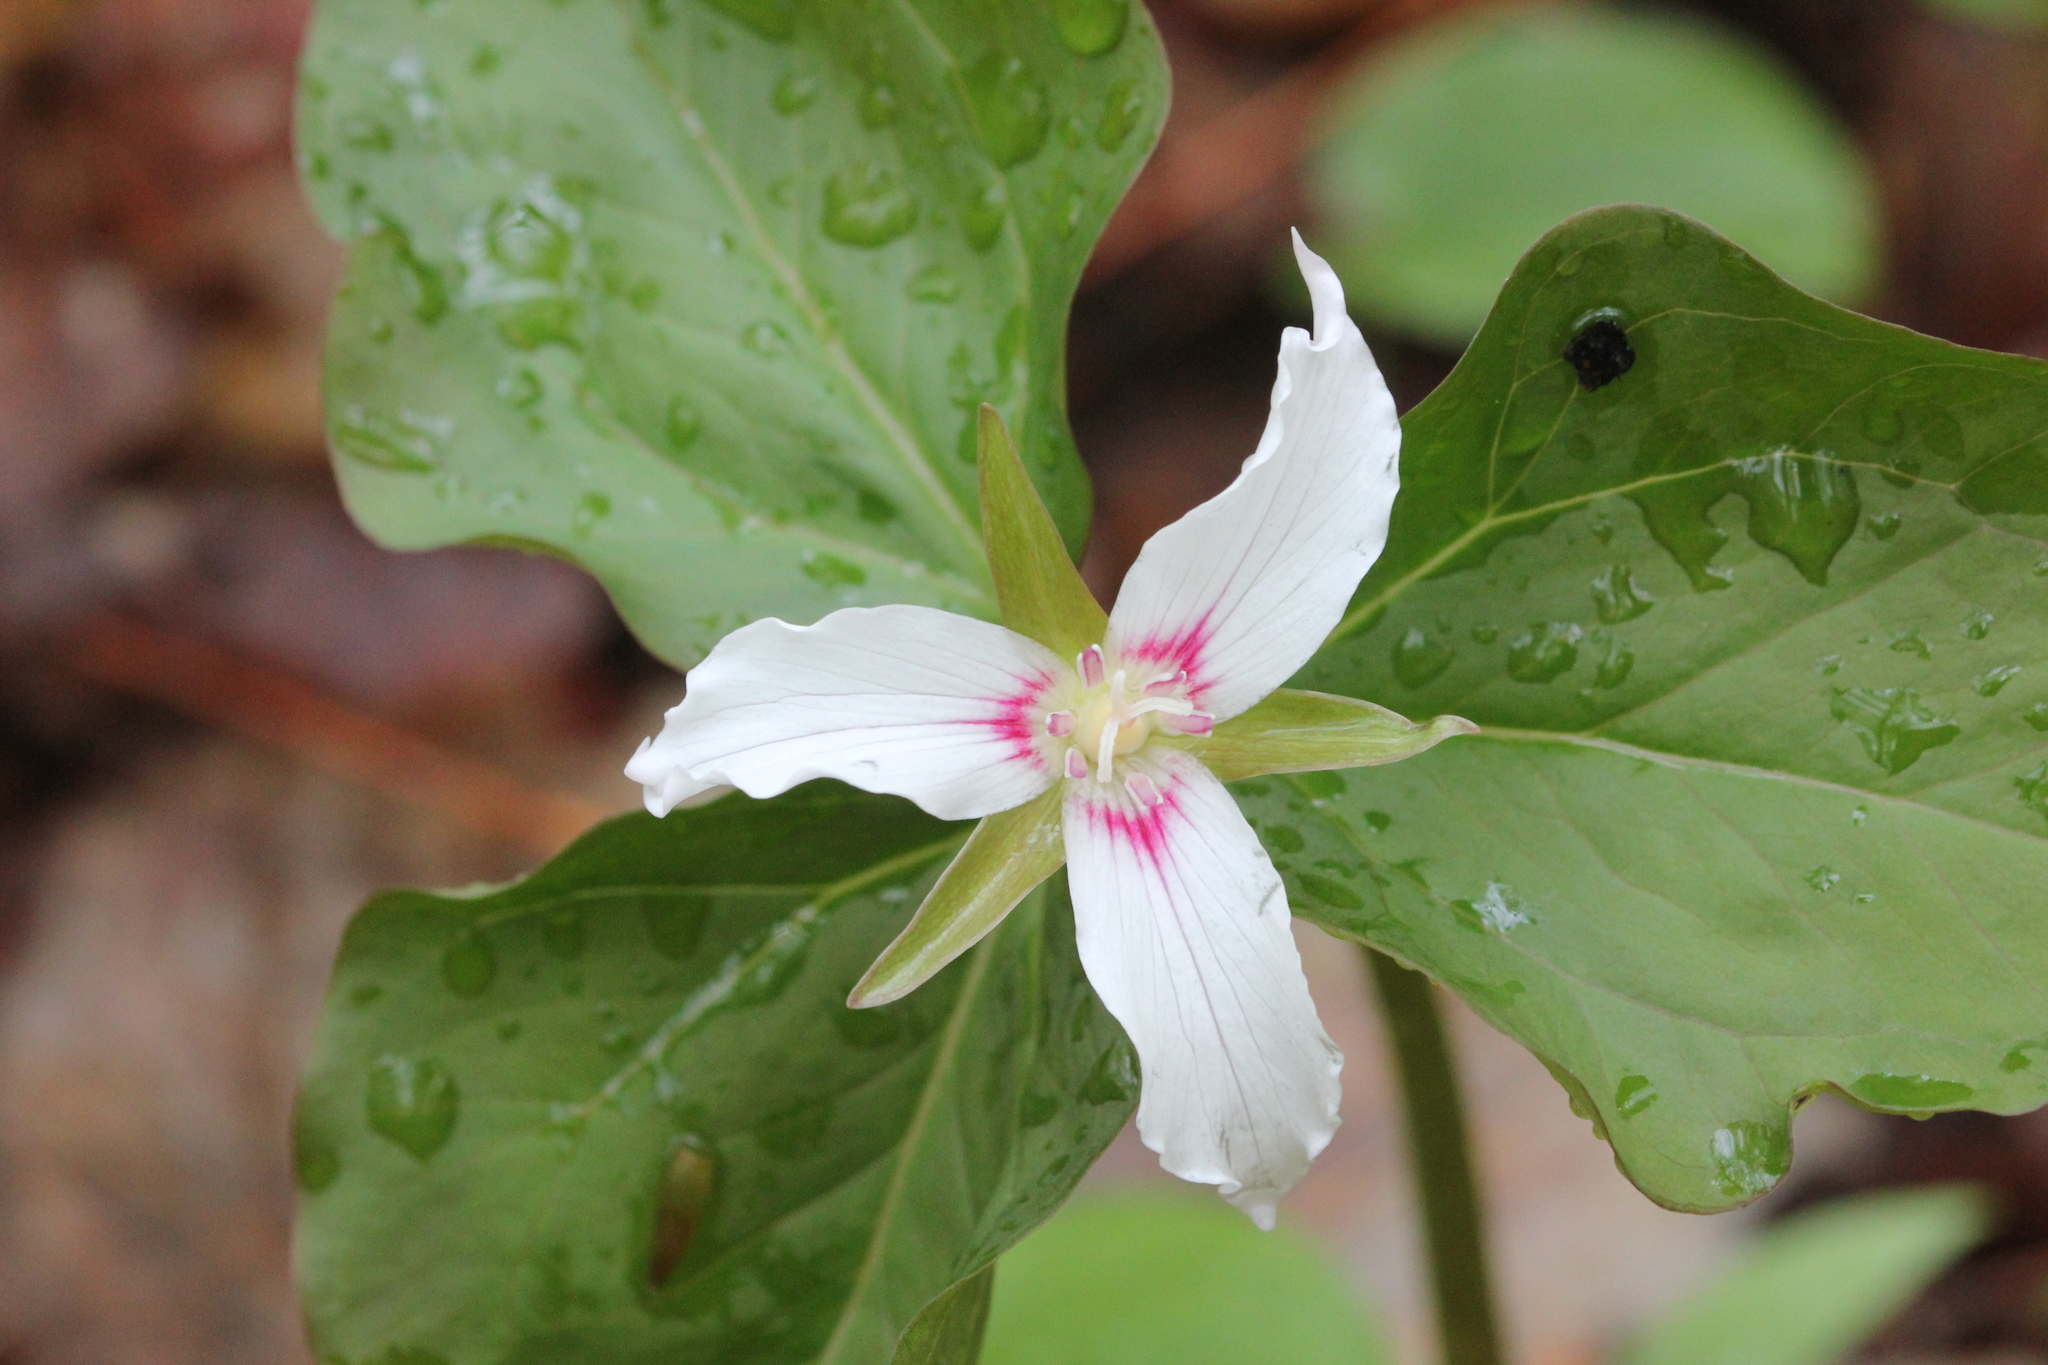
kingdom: Plantae
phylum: Tracheophyta
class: Liliopsida
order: Liliales
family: Melanthiaceae
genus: Trillium
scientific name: Trillium undulatum
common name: Paint trillium
